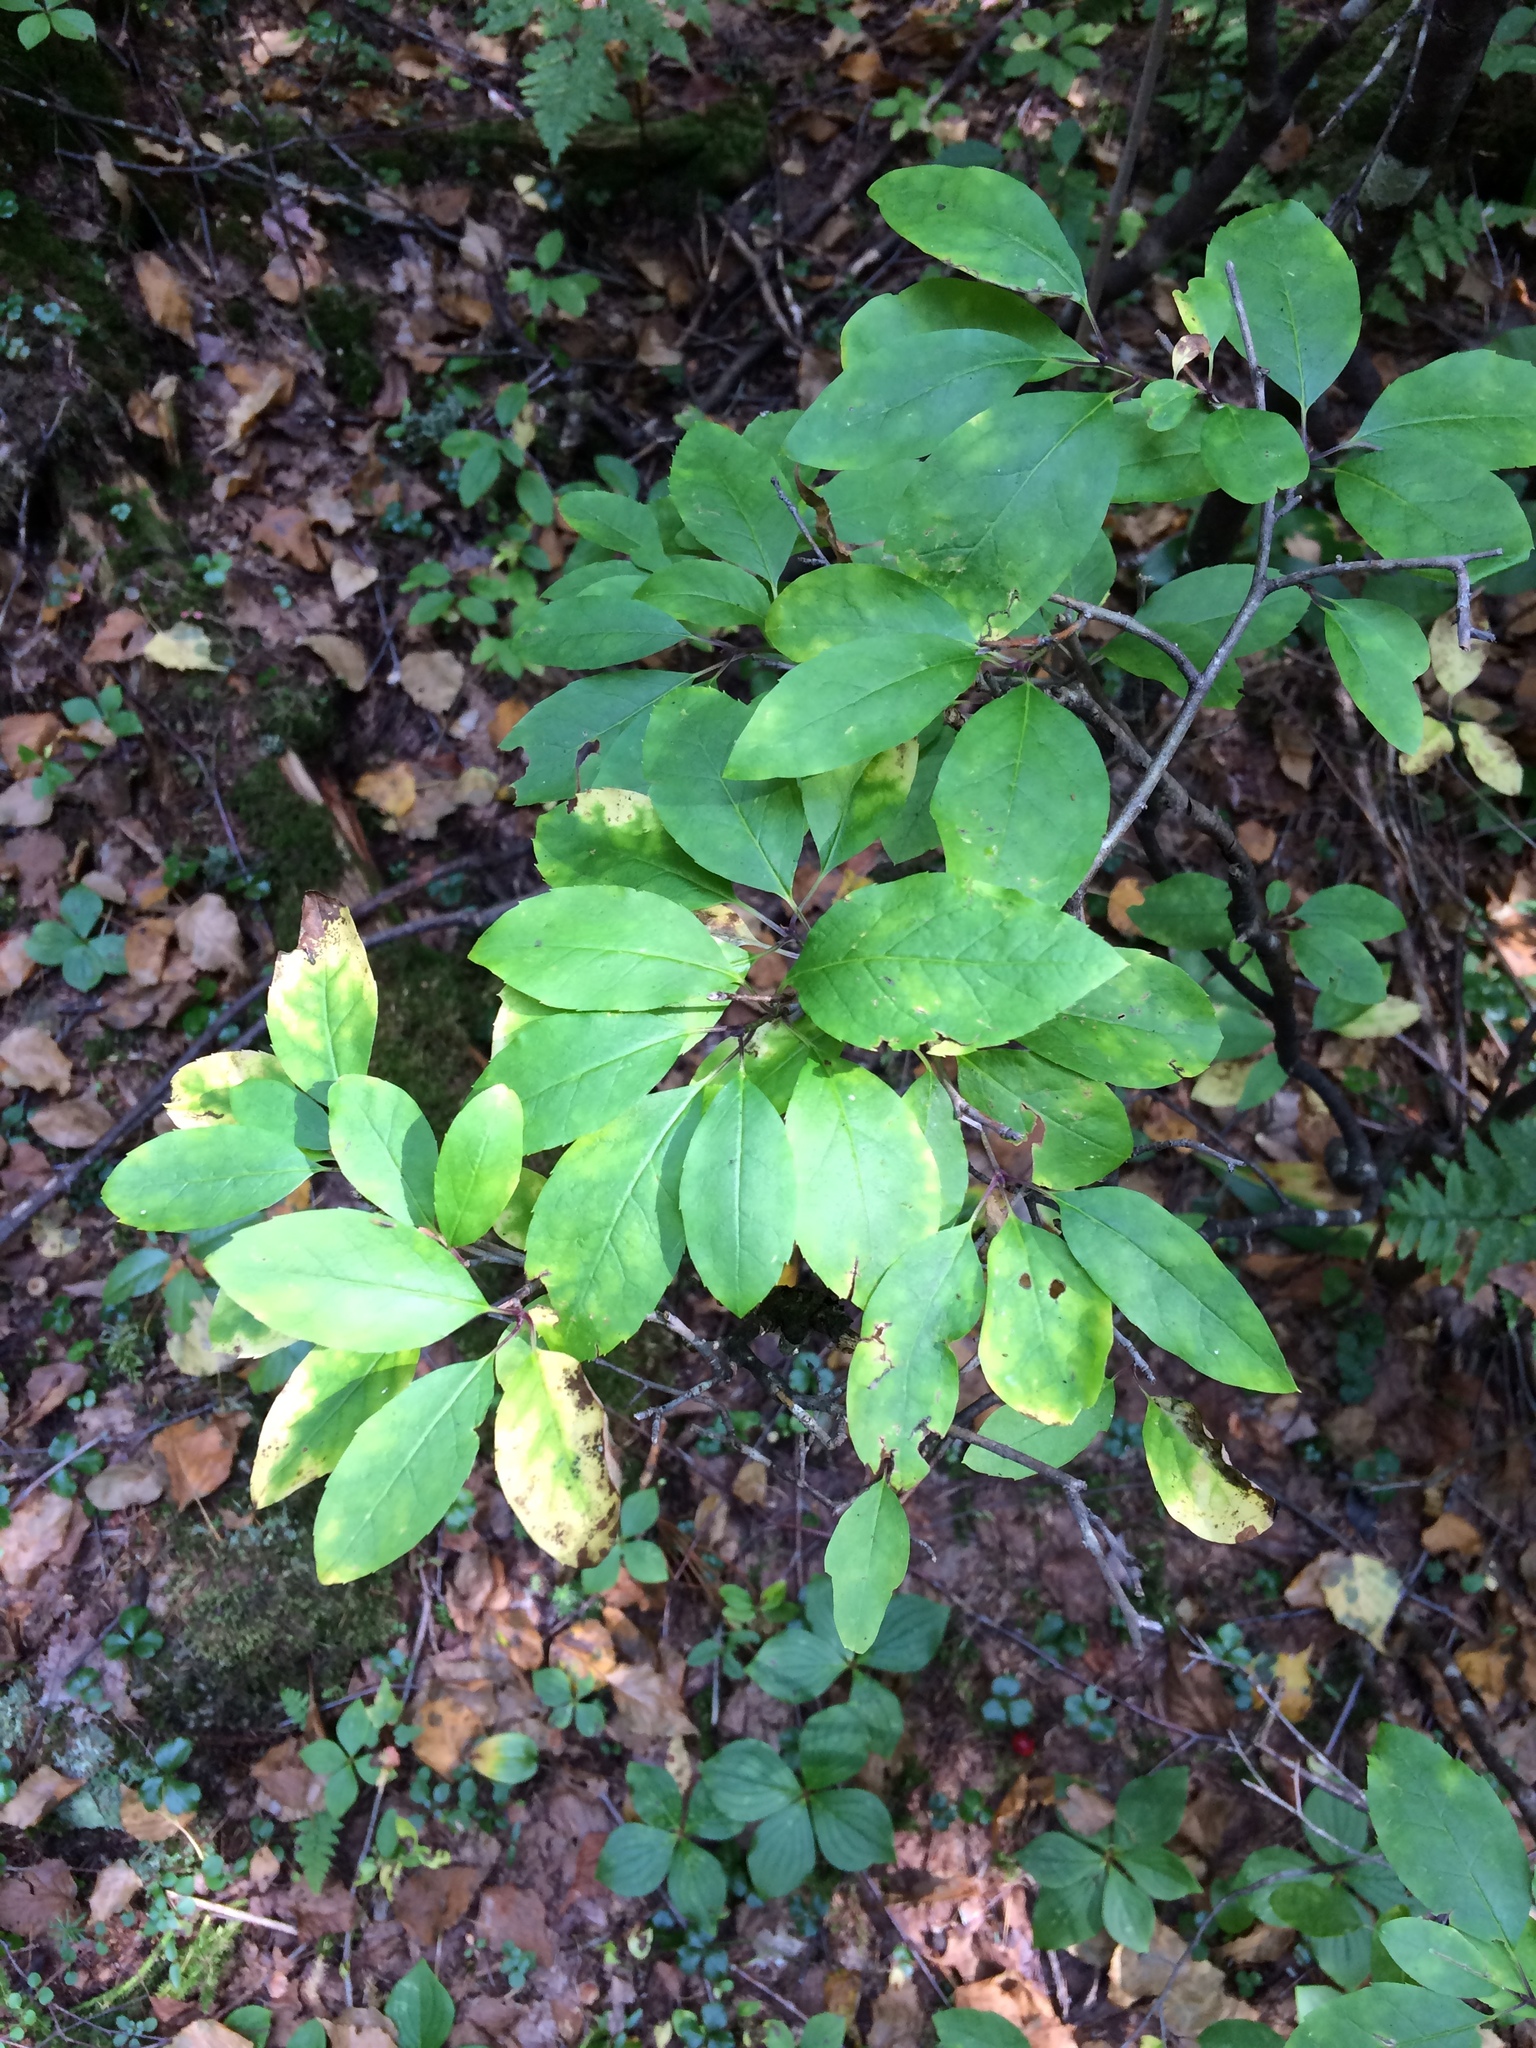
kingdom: Plantae
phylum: Tracheophyta
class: Magnoliopsida
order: Aquifoliales
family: Aquifoliaceae
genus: Ilex
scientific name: Ilex mucronata
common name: Catberry
